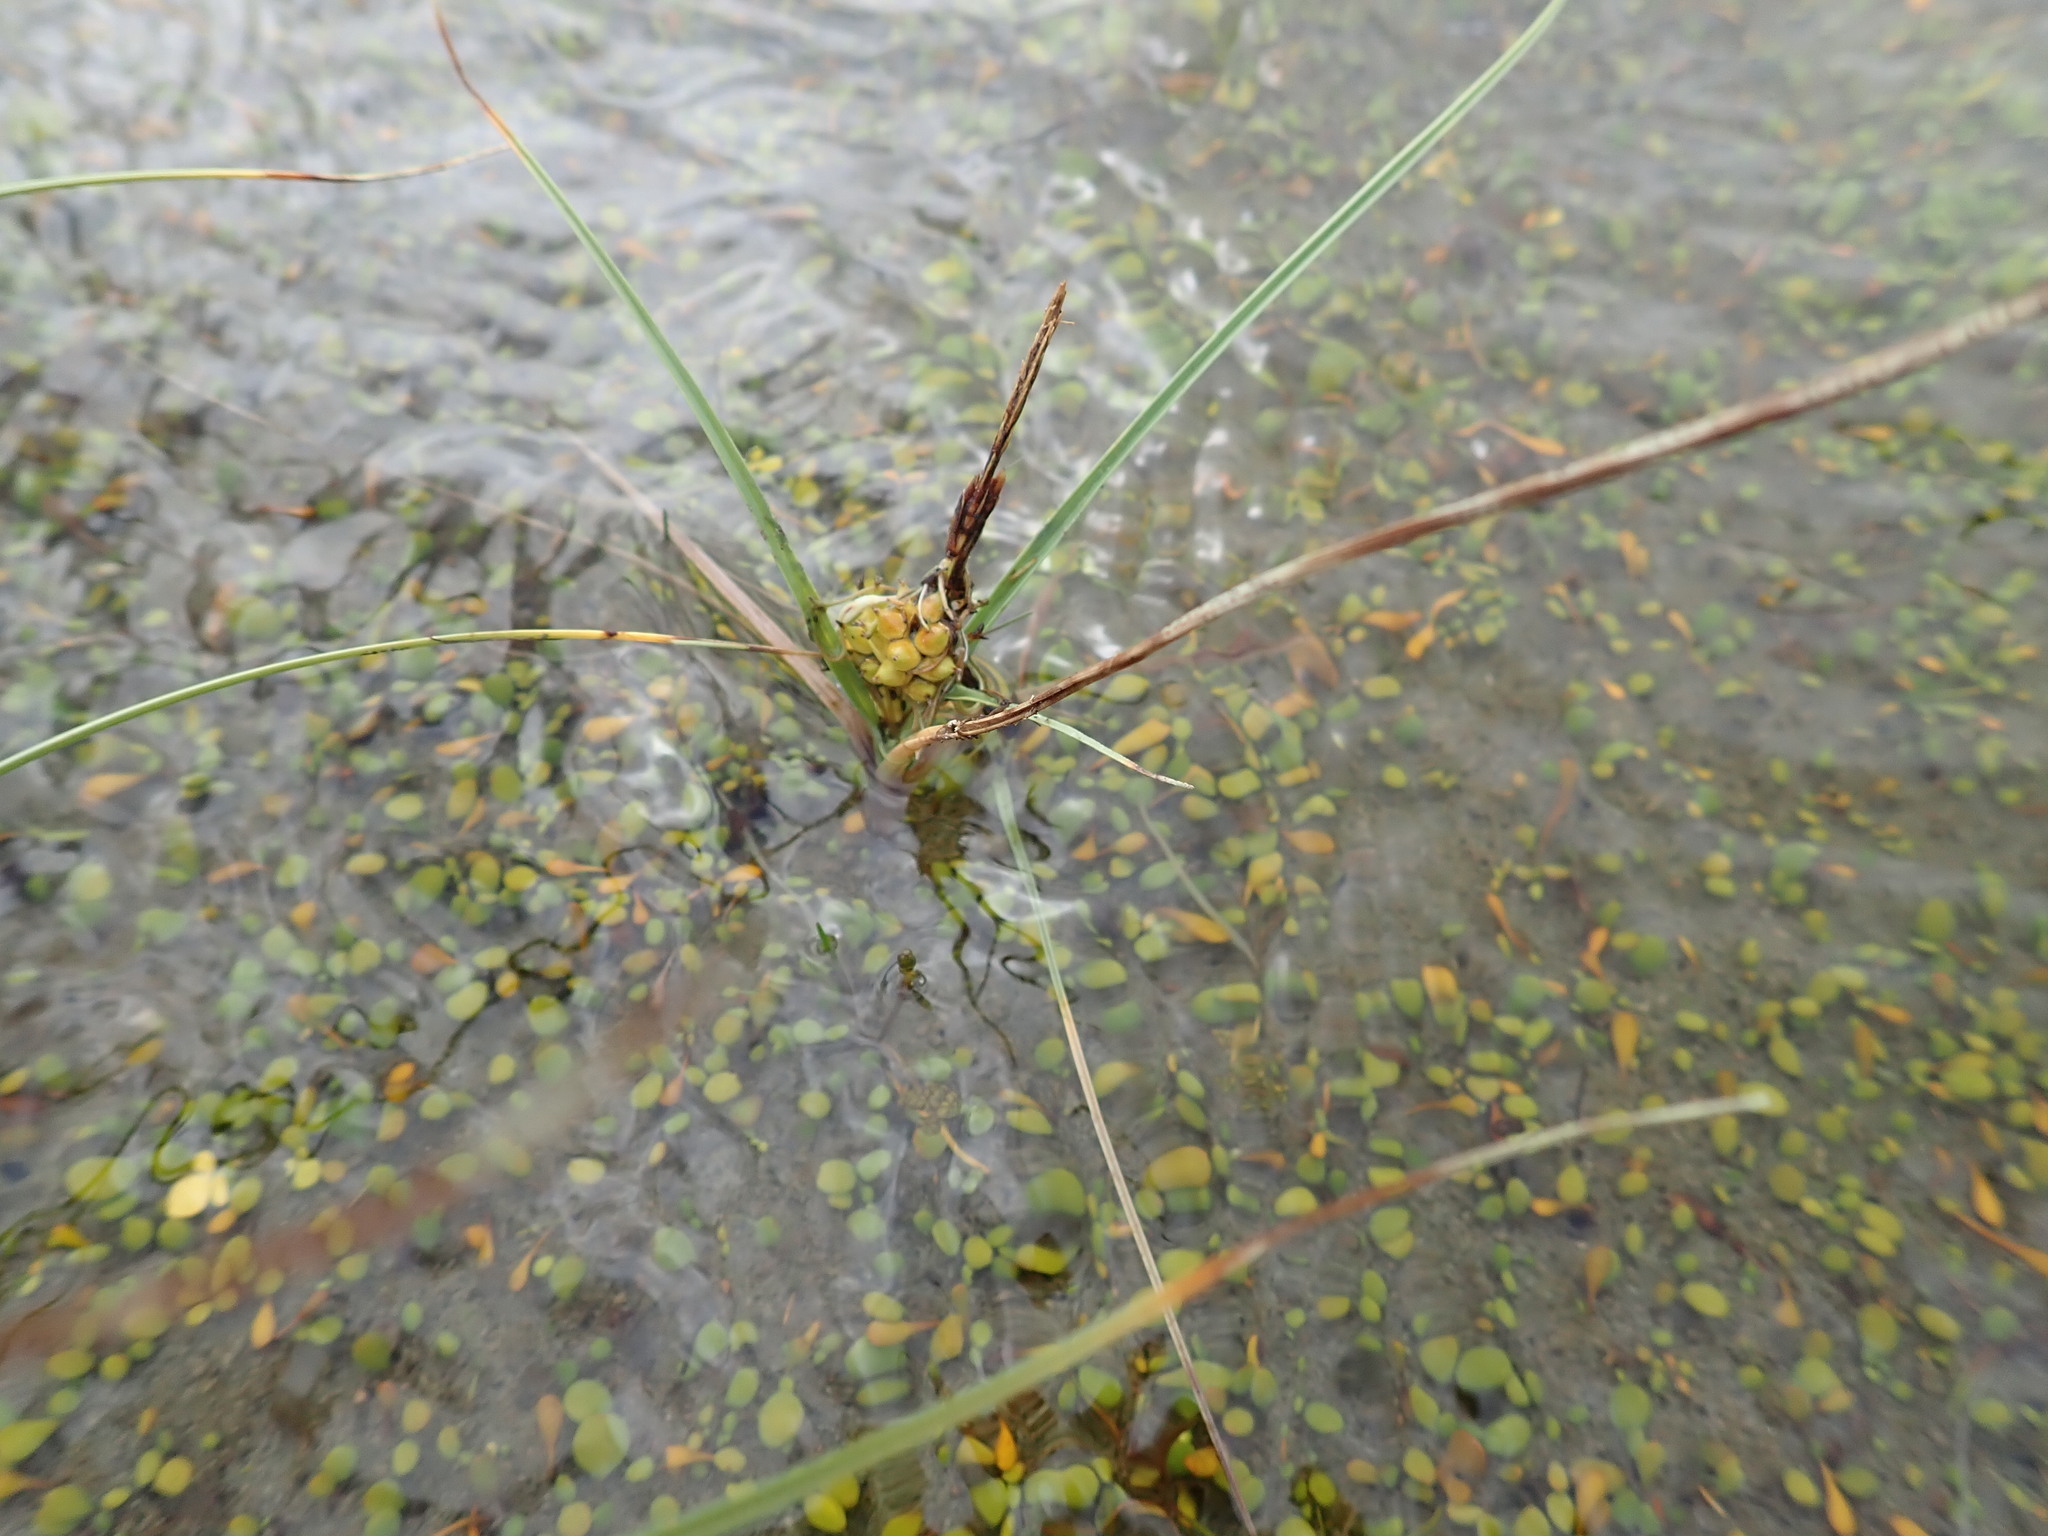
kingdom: Plantae
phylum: Tracheophyta
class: Liliopsida
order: Poales
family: Cyperaceae
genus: Carex
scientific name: Carex pumila
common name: Dwarf sedge
